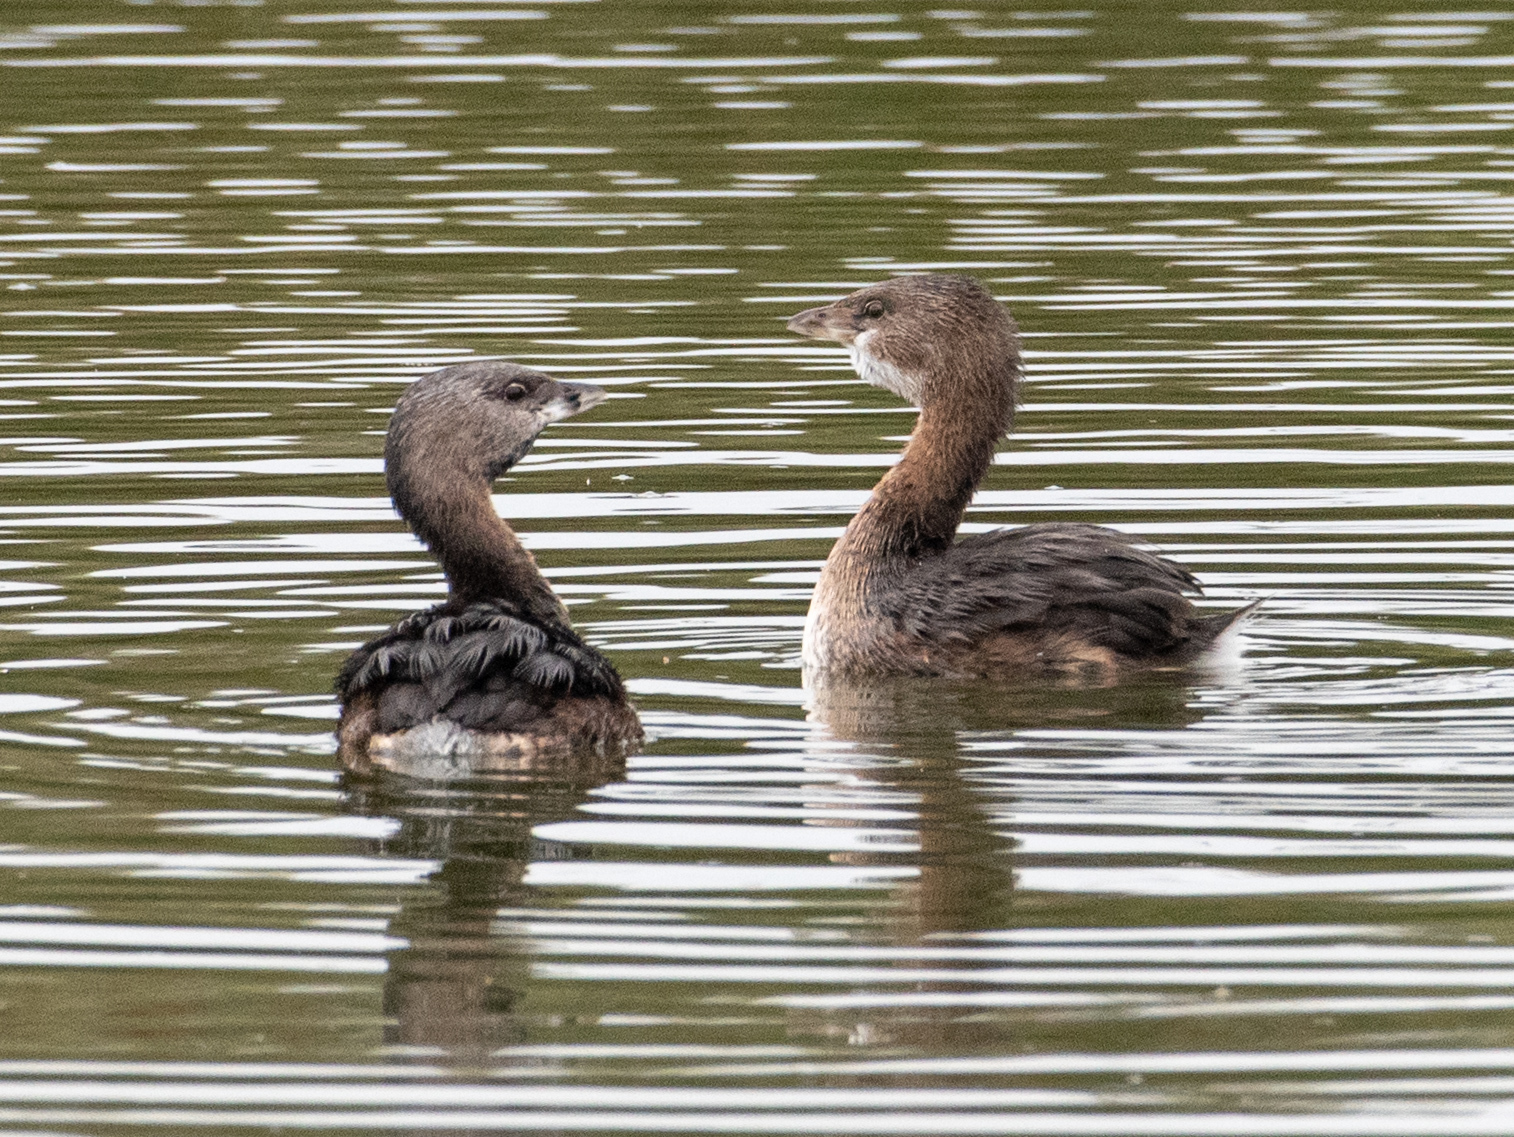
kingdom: Animalia
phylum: Chordata
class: Aves
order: Podicipediformes
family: Podicipedidae
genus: Podilymbus
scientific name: Podilymbus podiceps
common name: Pied-billed grebe
